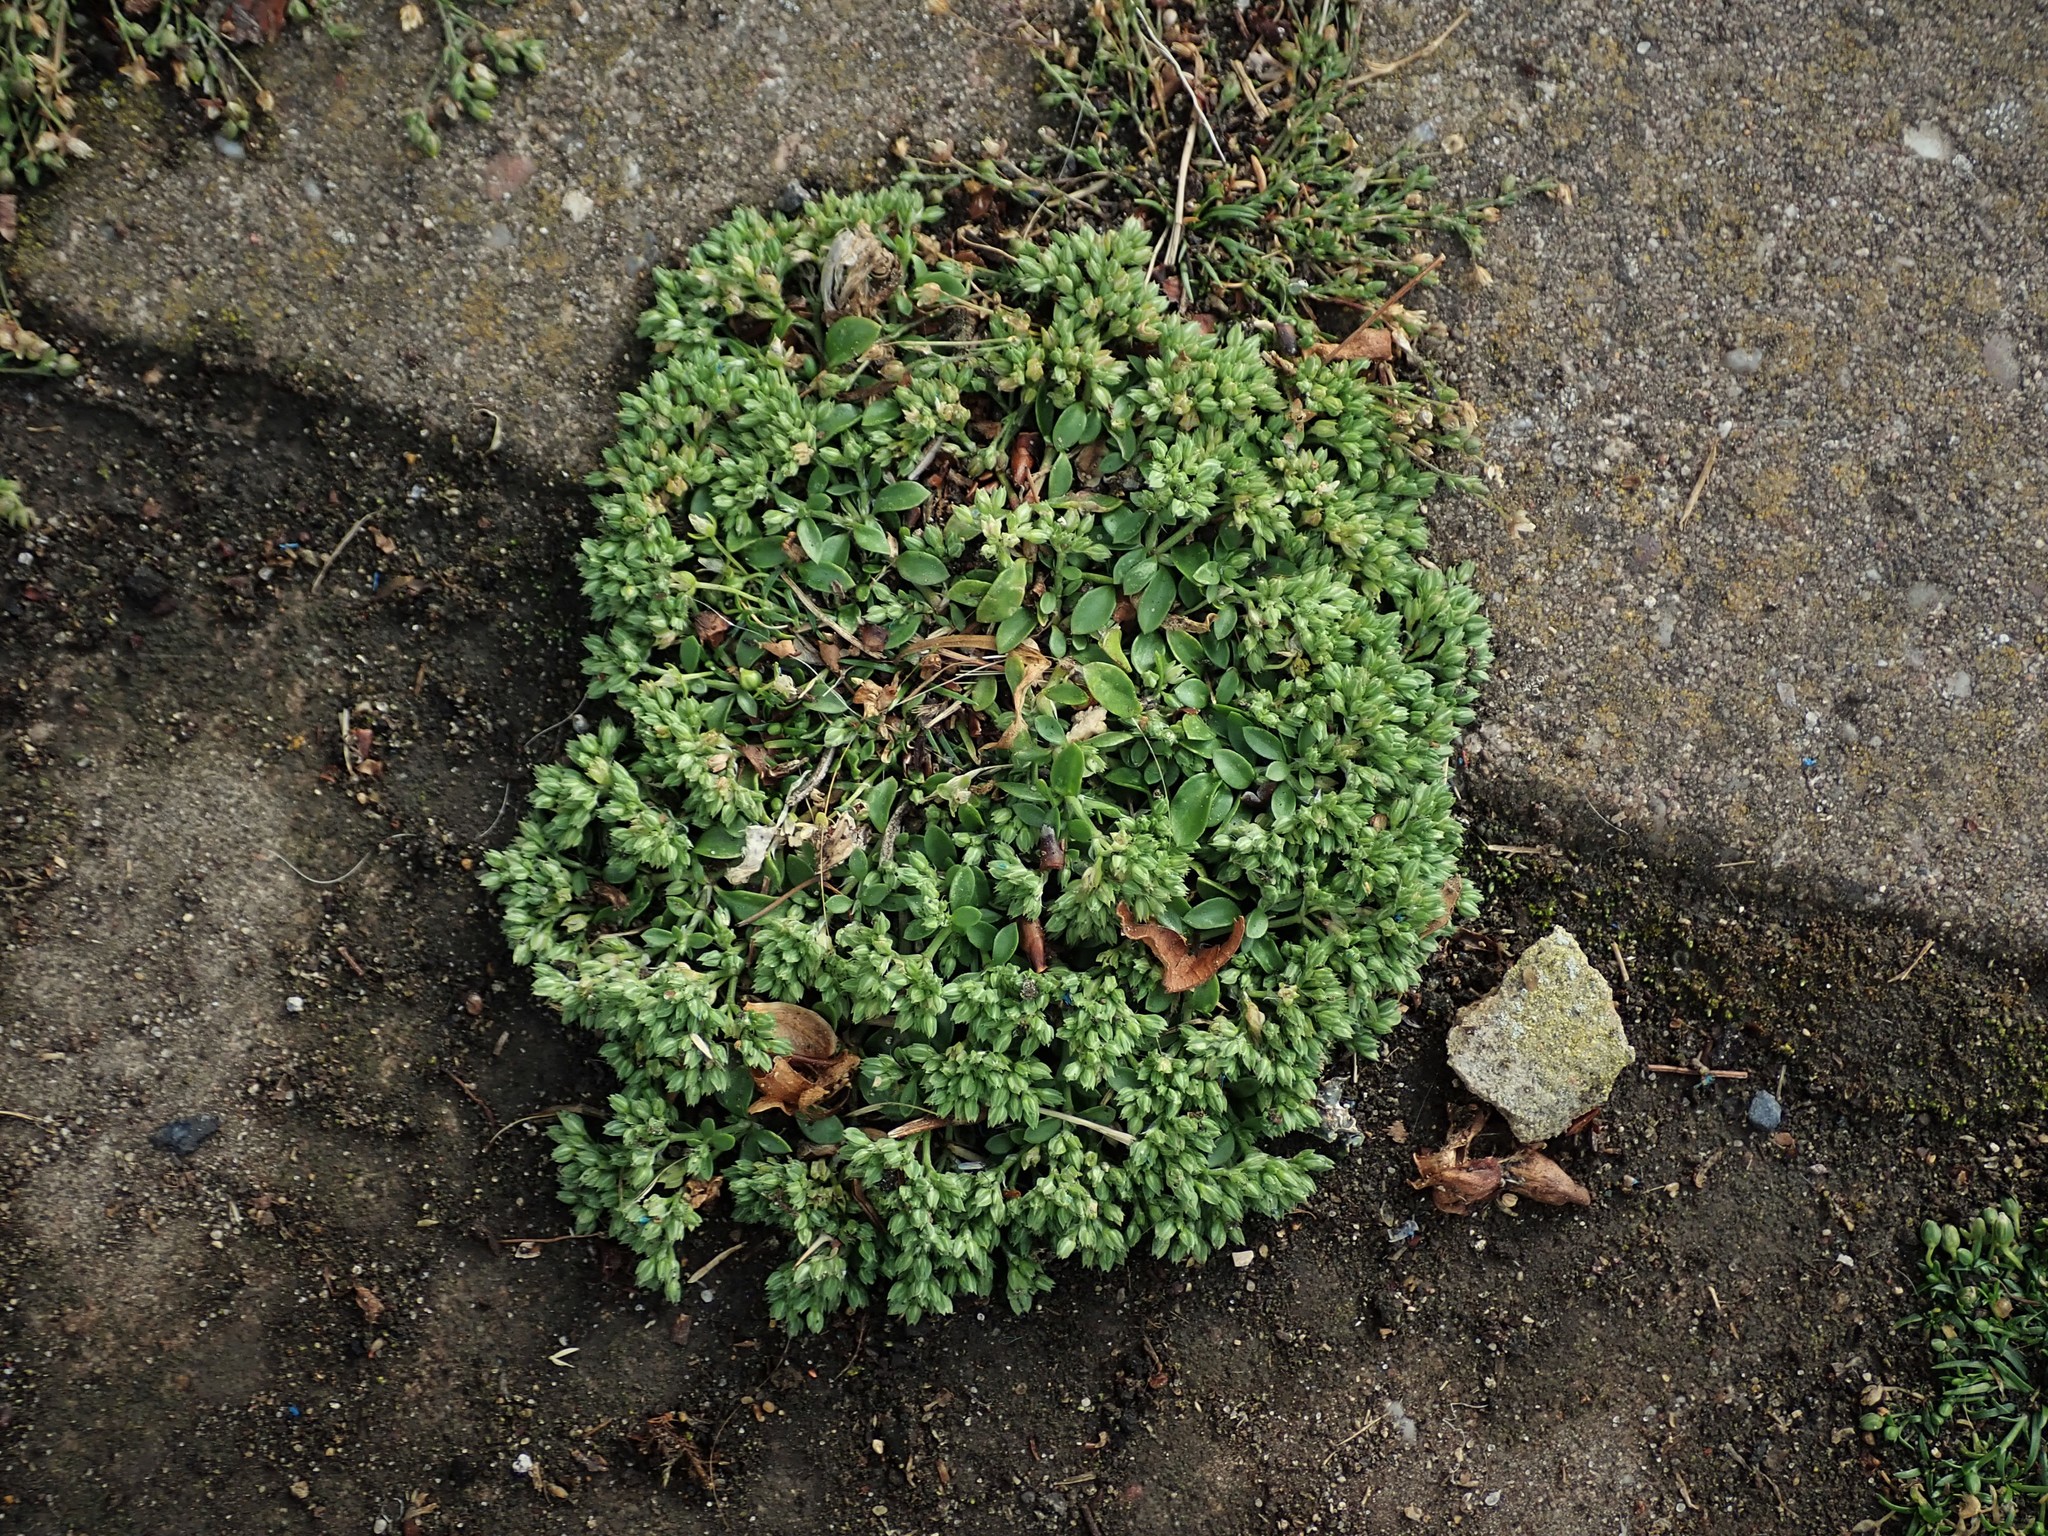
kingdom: Plantae
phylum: Tracheophyta
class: Magnoliopsida
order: Caryophyllales
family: Caryophyllaceae
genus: Polycarpon
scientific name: Polycarpon tetraphyllum
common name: Four-leaved all-seed
